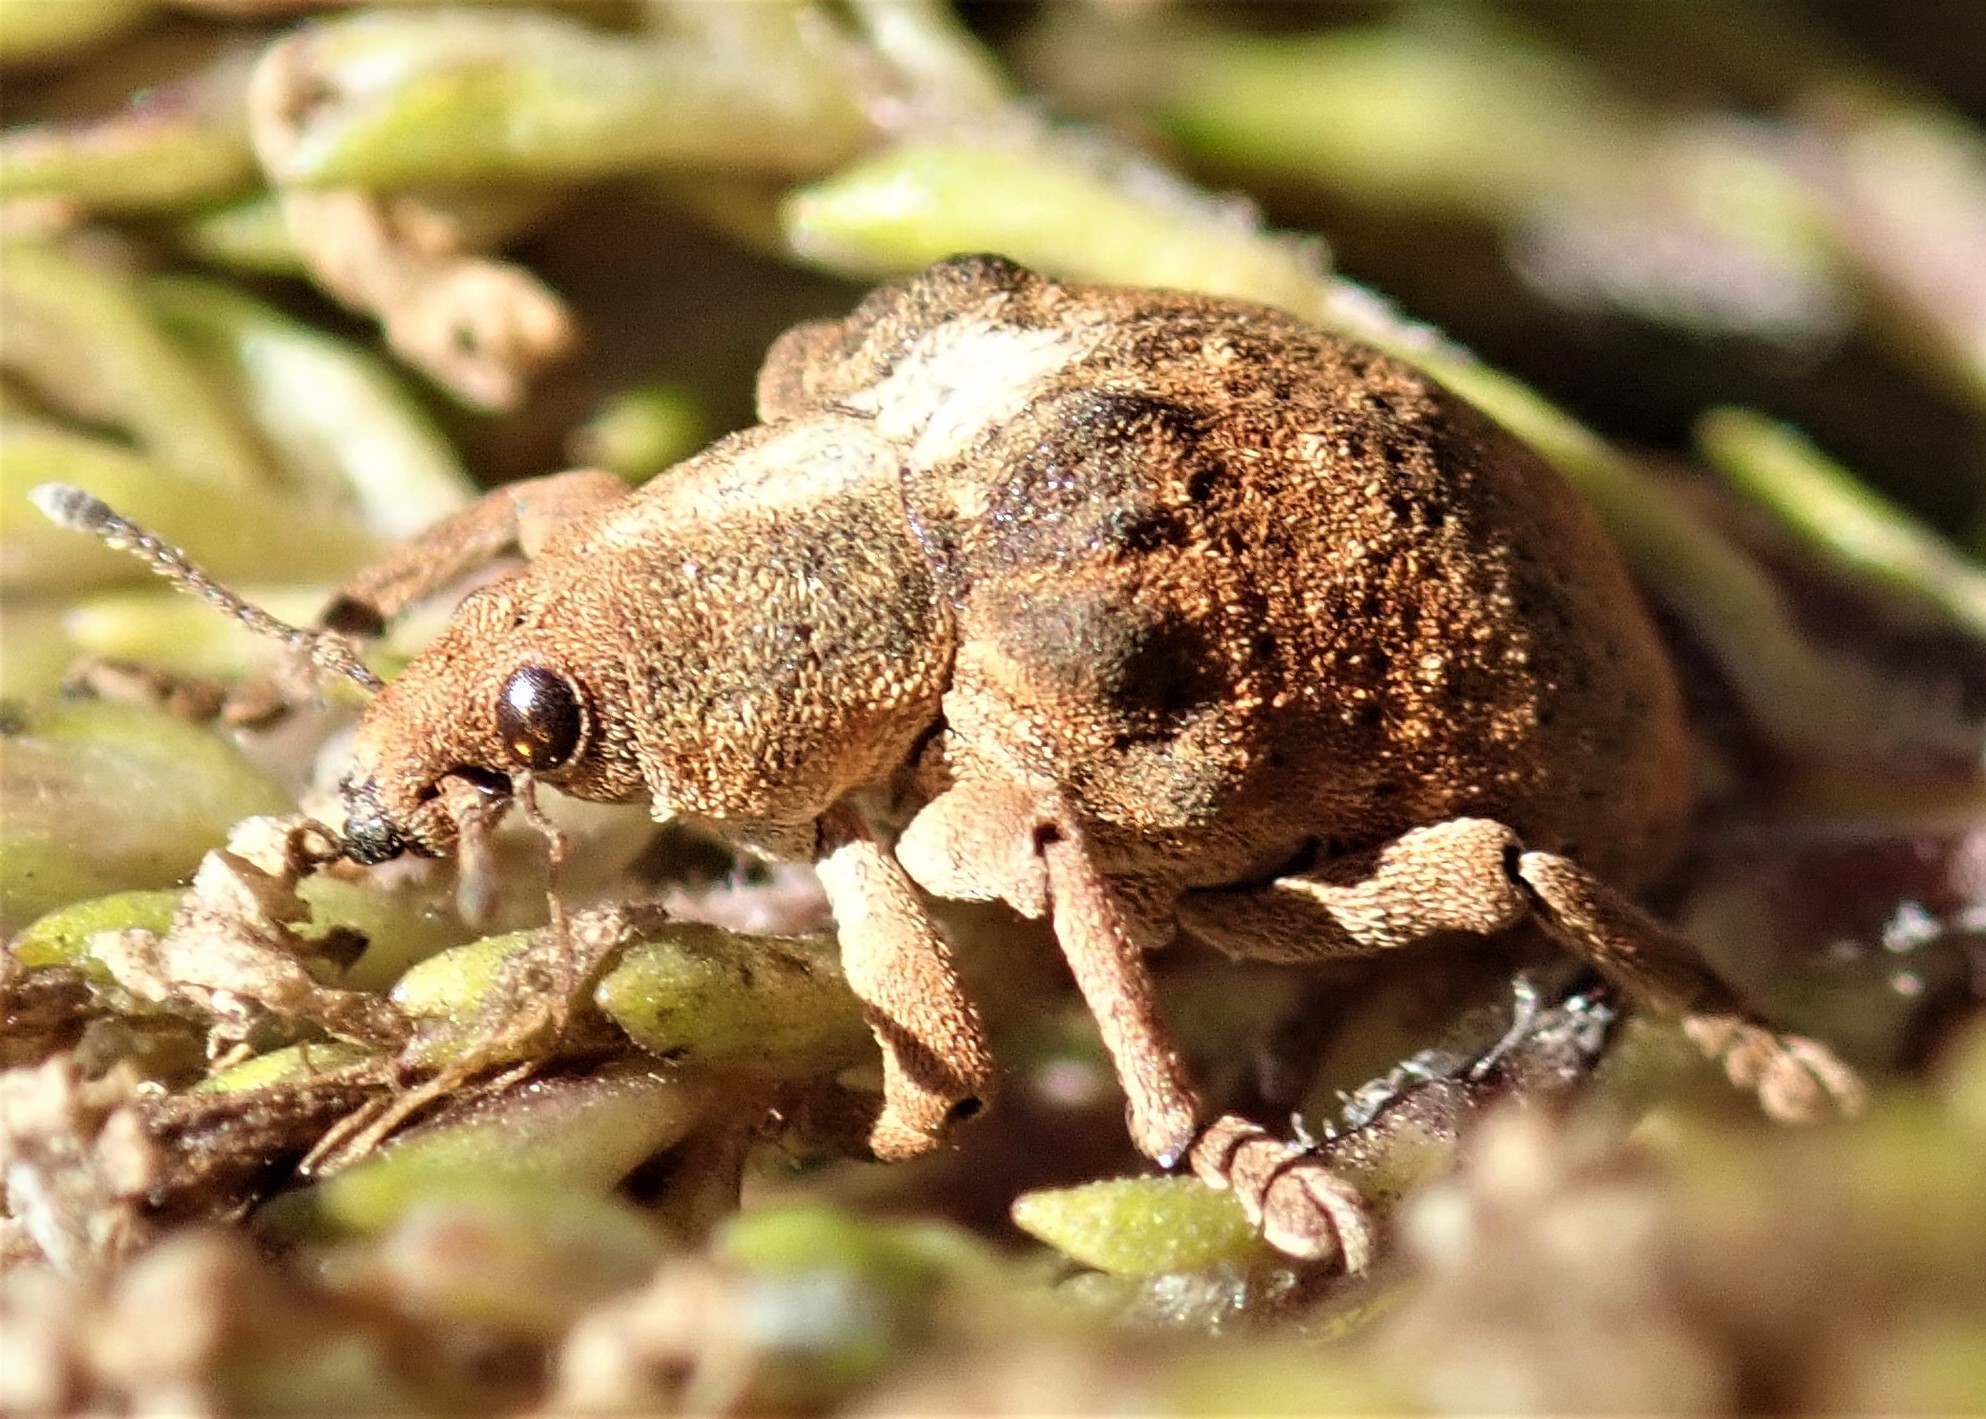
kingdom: Animalia
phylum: Arthropoda
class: Insecta
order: Coleoptera
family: Curculionidae
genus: Gonipterus
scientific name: Gonipterus
